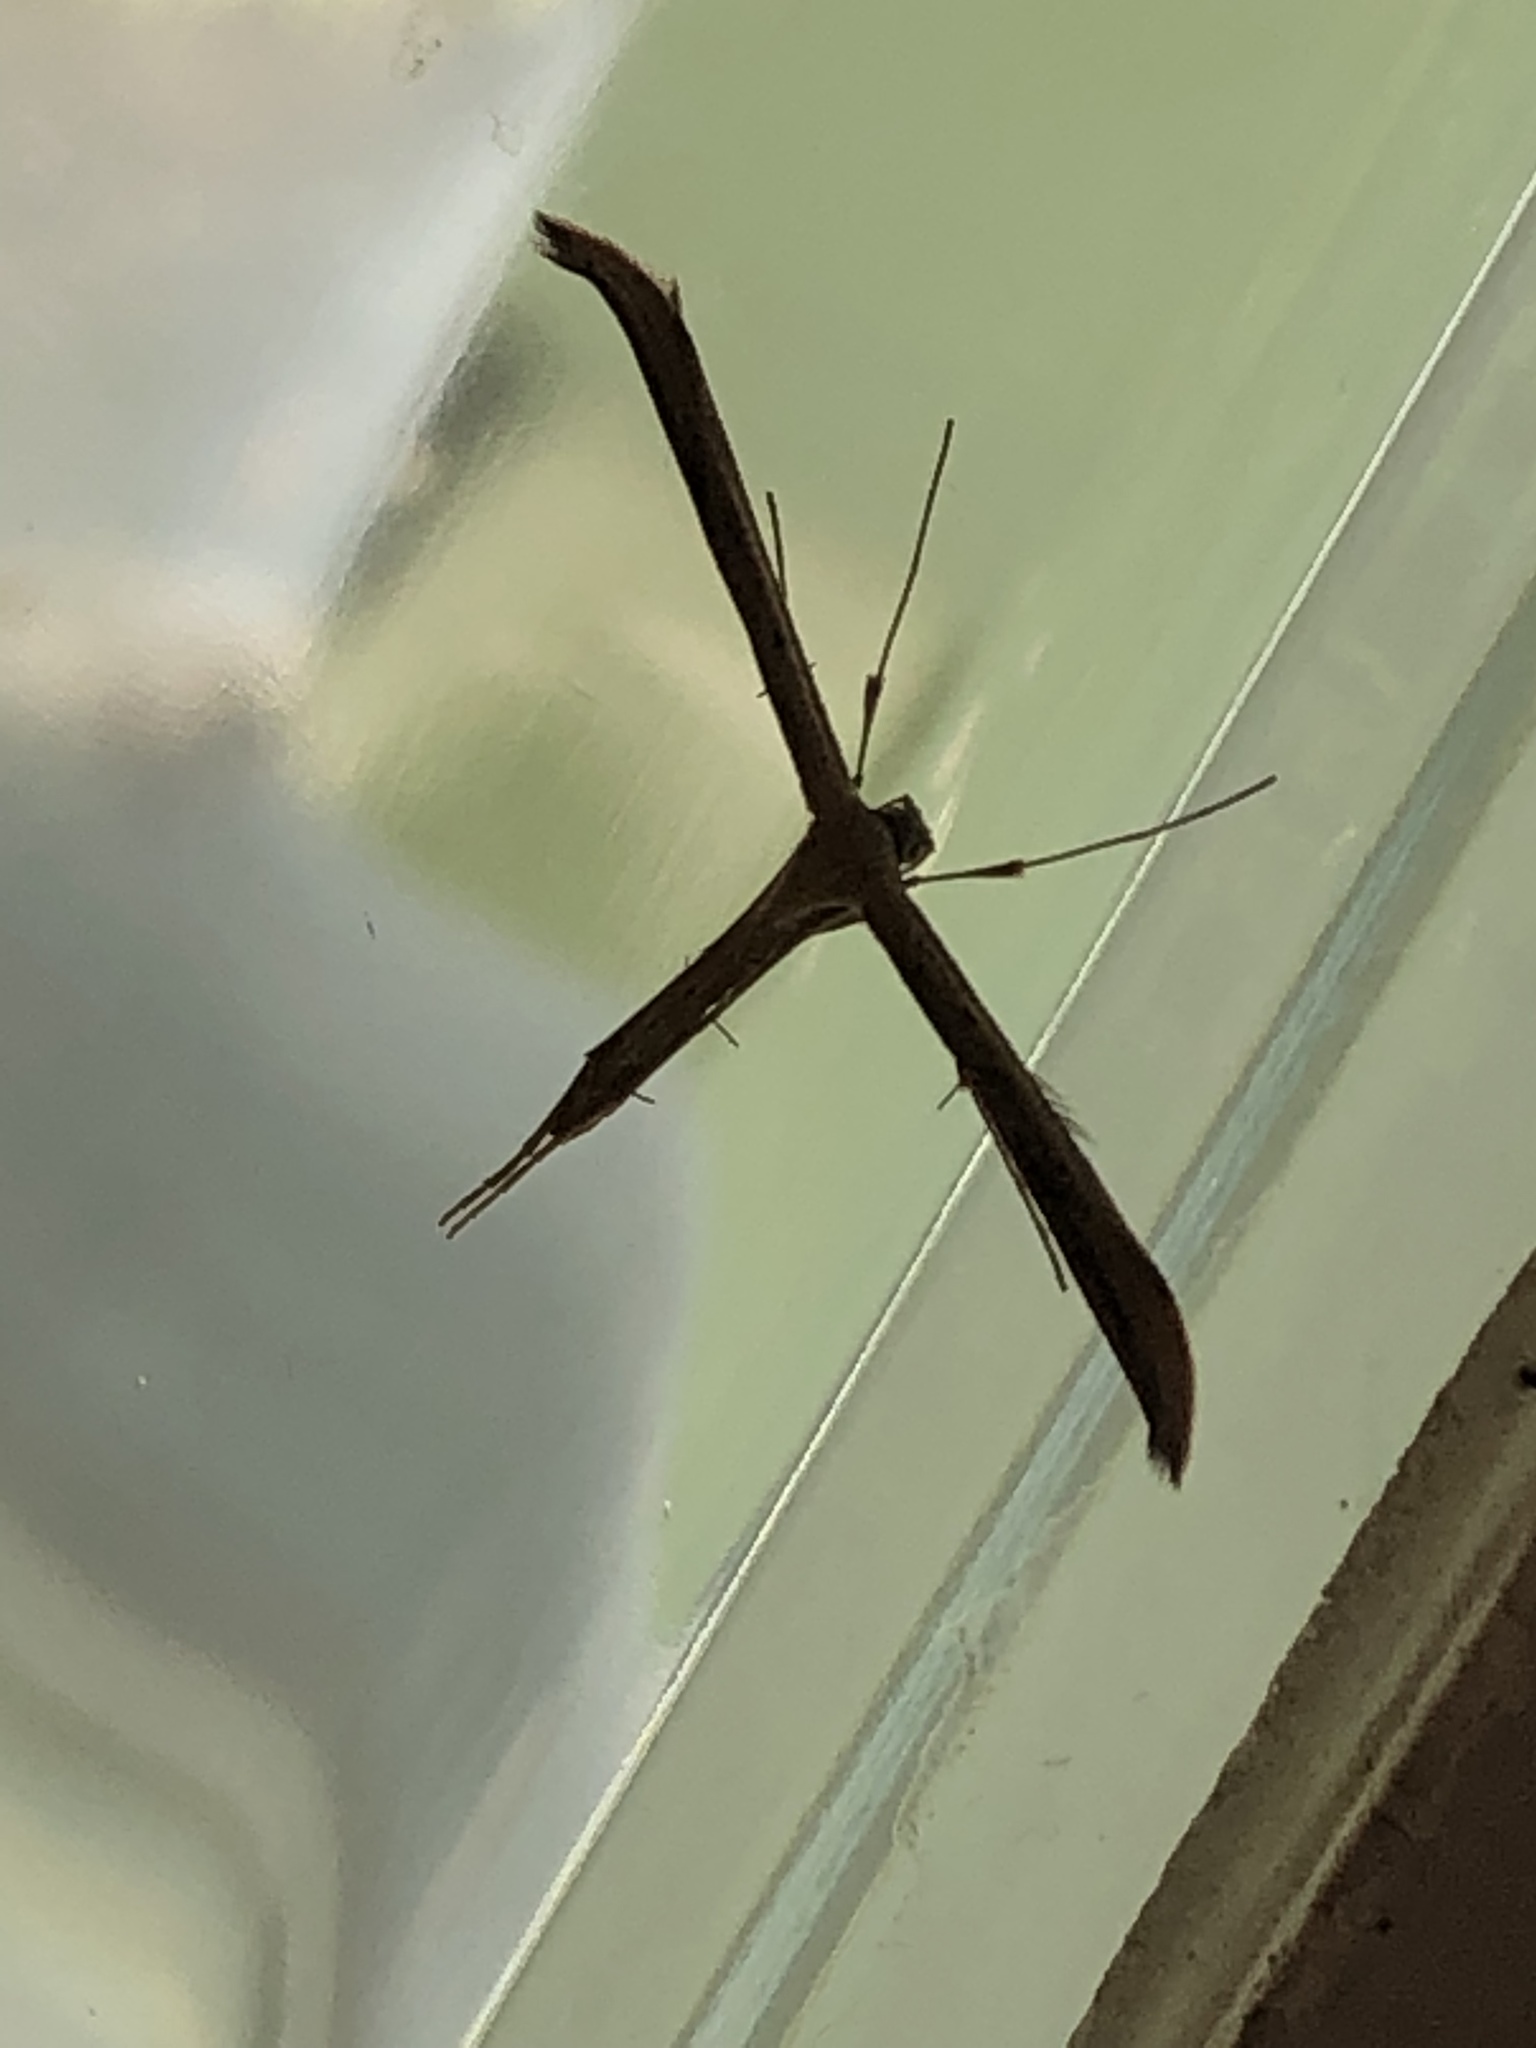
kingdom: Animalia
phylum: Arthropoda
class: Insecta
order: Lepidoptera
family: Pterophoridae
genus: Emmelina
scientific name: Emmelina monodactyla
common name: Common plume
